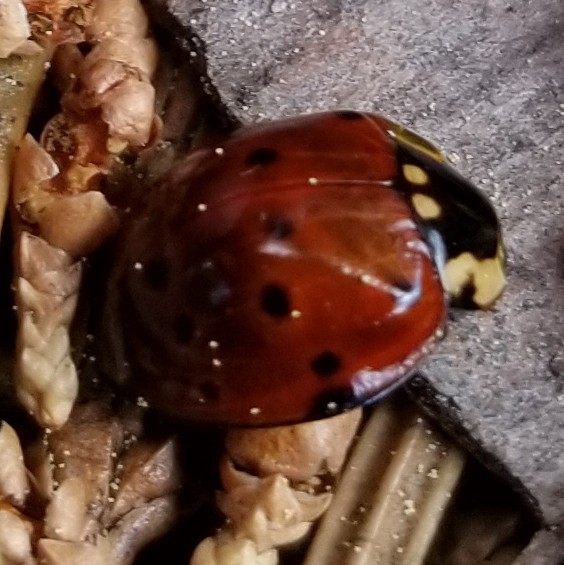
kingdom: Animalia
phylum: Arthropoda
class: Insecta
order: Coleoptera
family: Coccinellidae
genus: Anatis
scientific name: Anatis rathvoni
